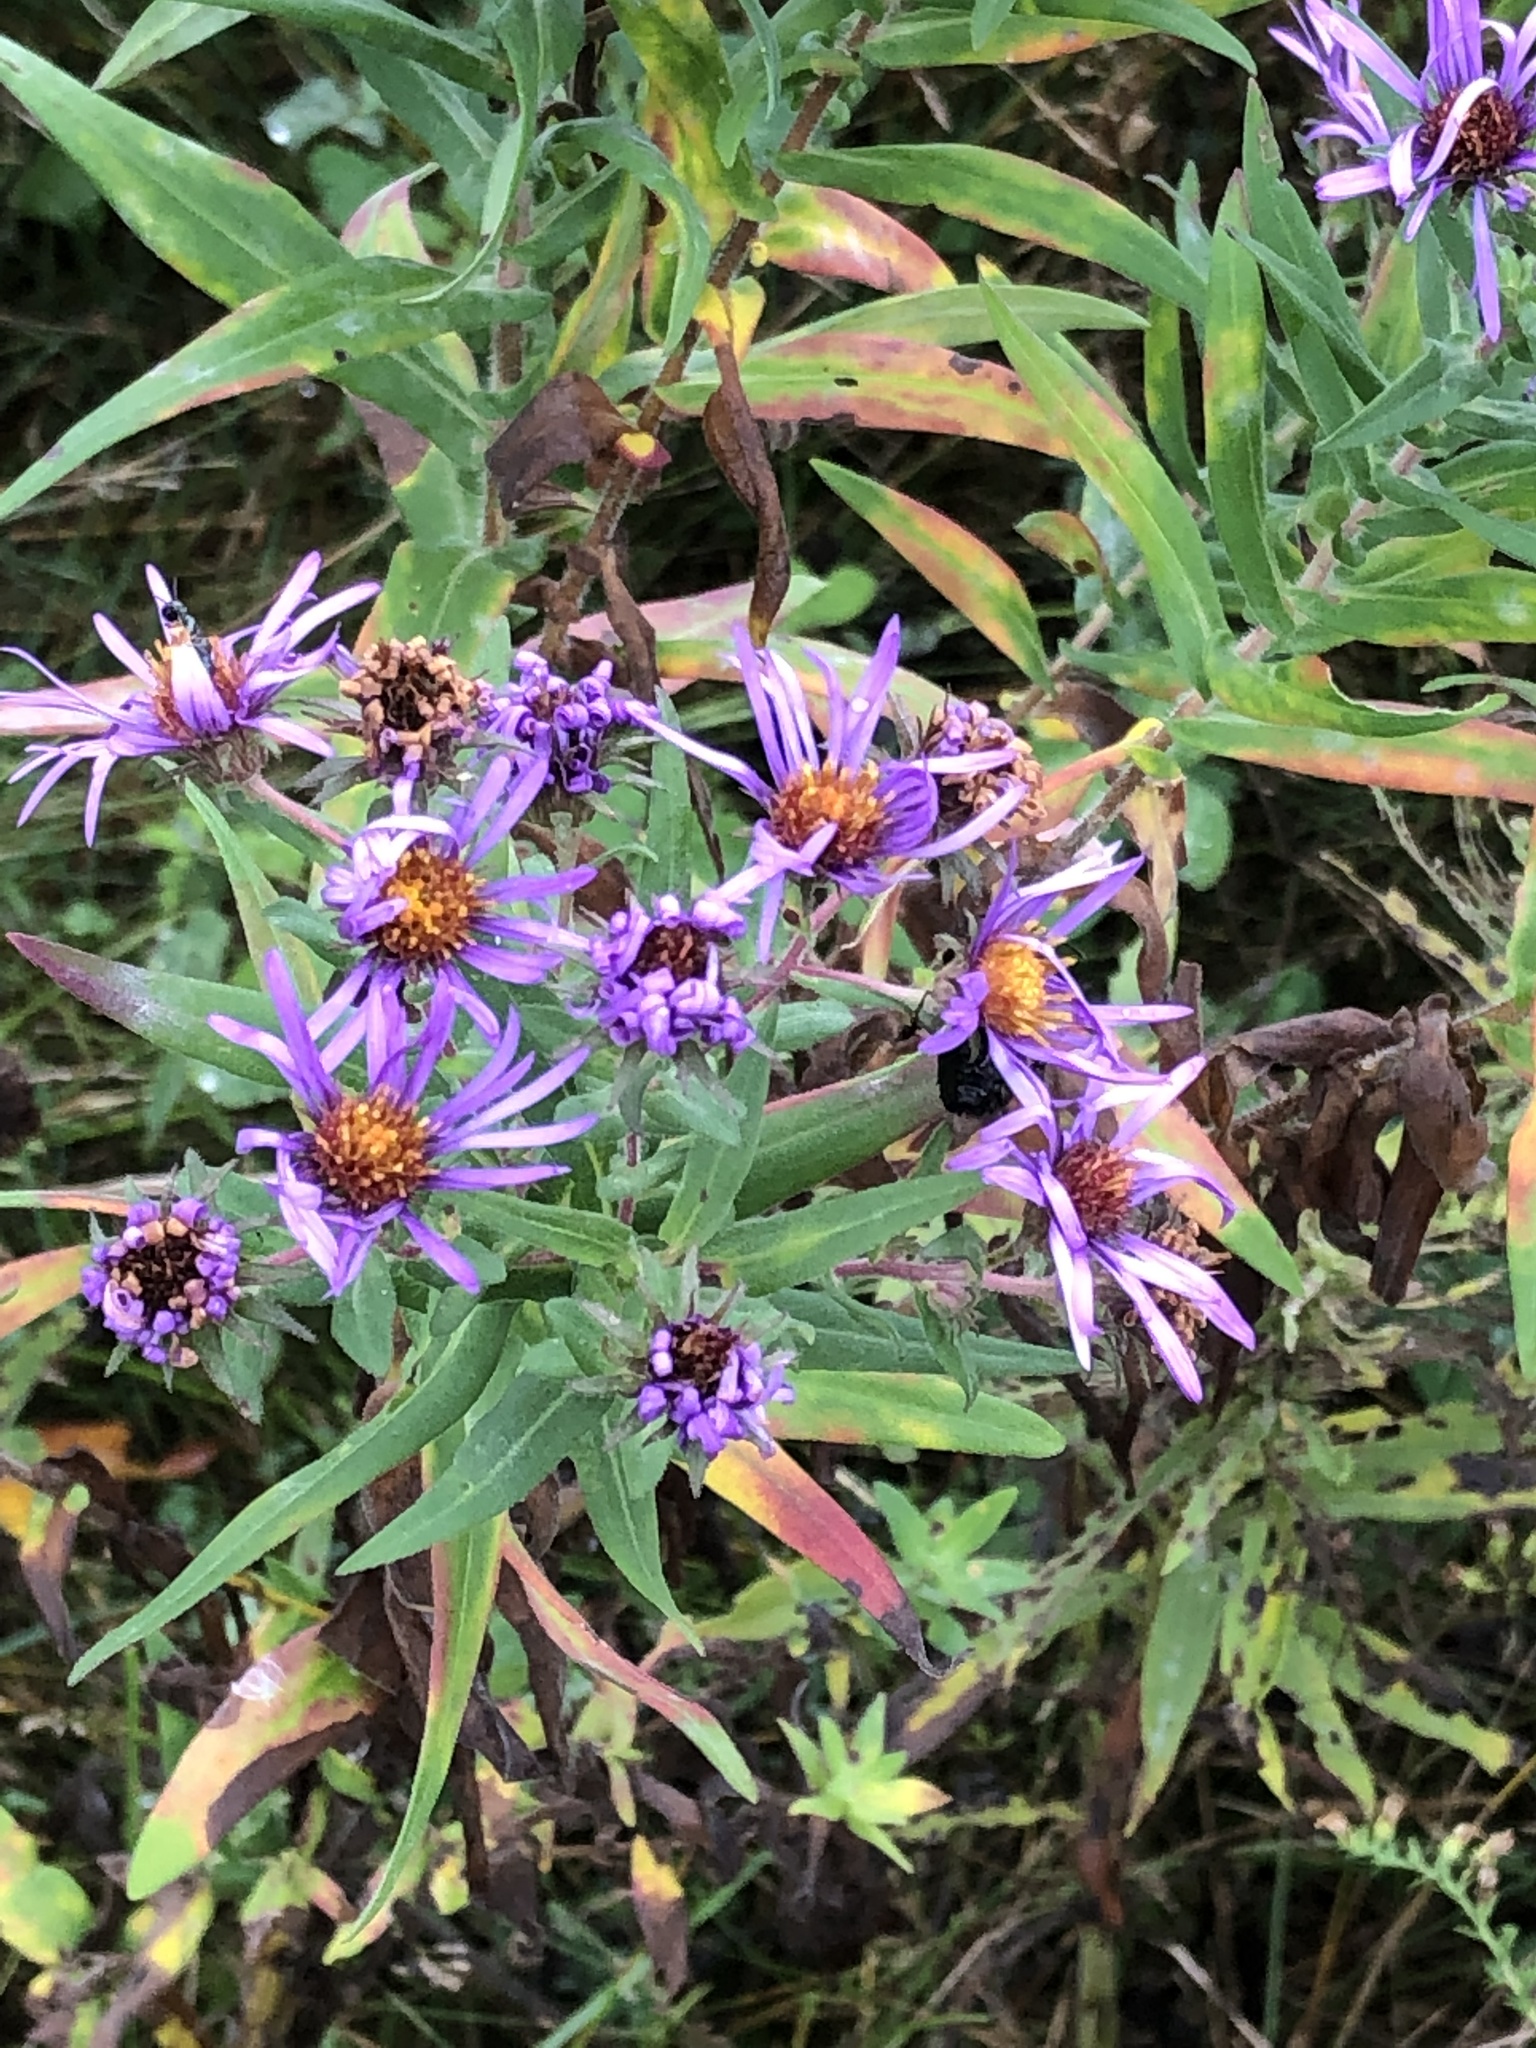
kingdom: Plantae
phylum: Tracheophyta
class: Magnoliopsida
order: Asterales
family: Asteraceae
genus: Symphyotrichum
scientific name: Symphyotrichum novae-angliae
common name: Michaelmas daisy
